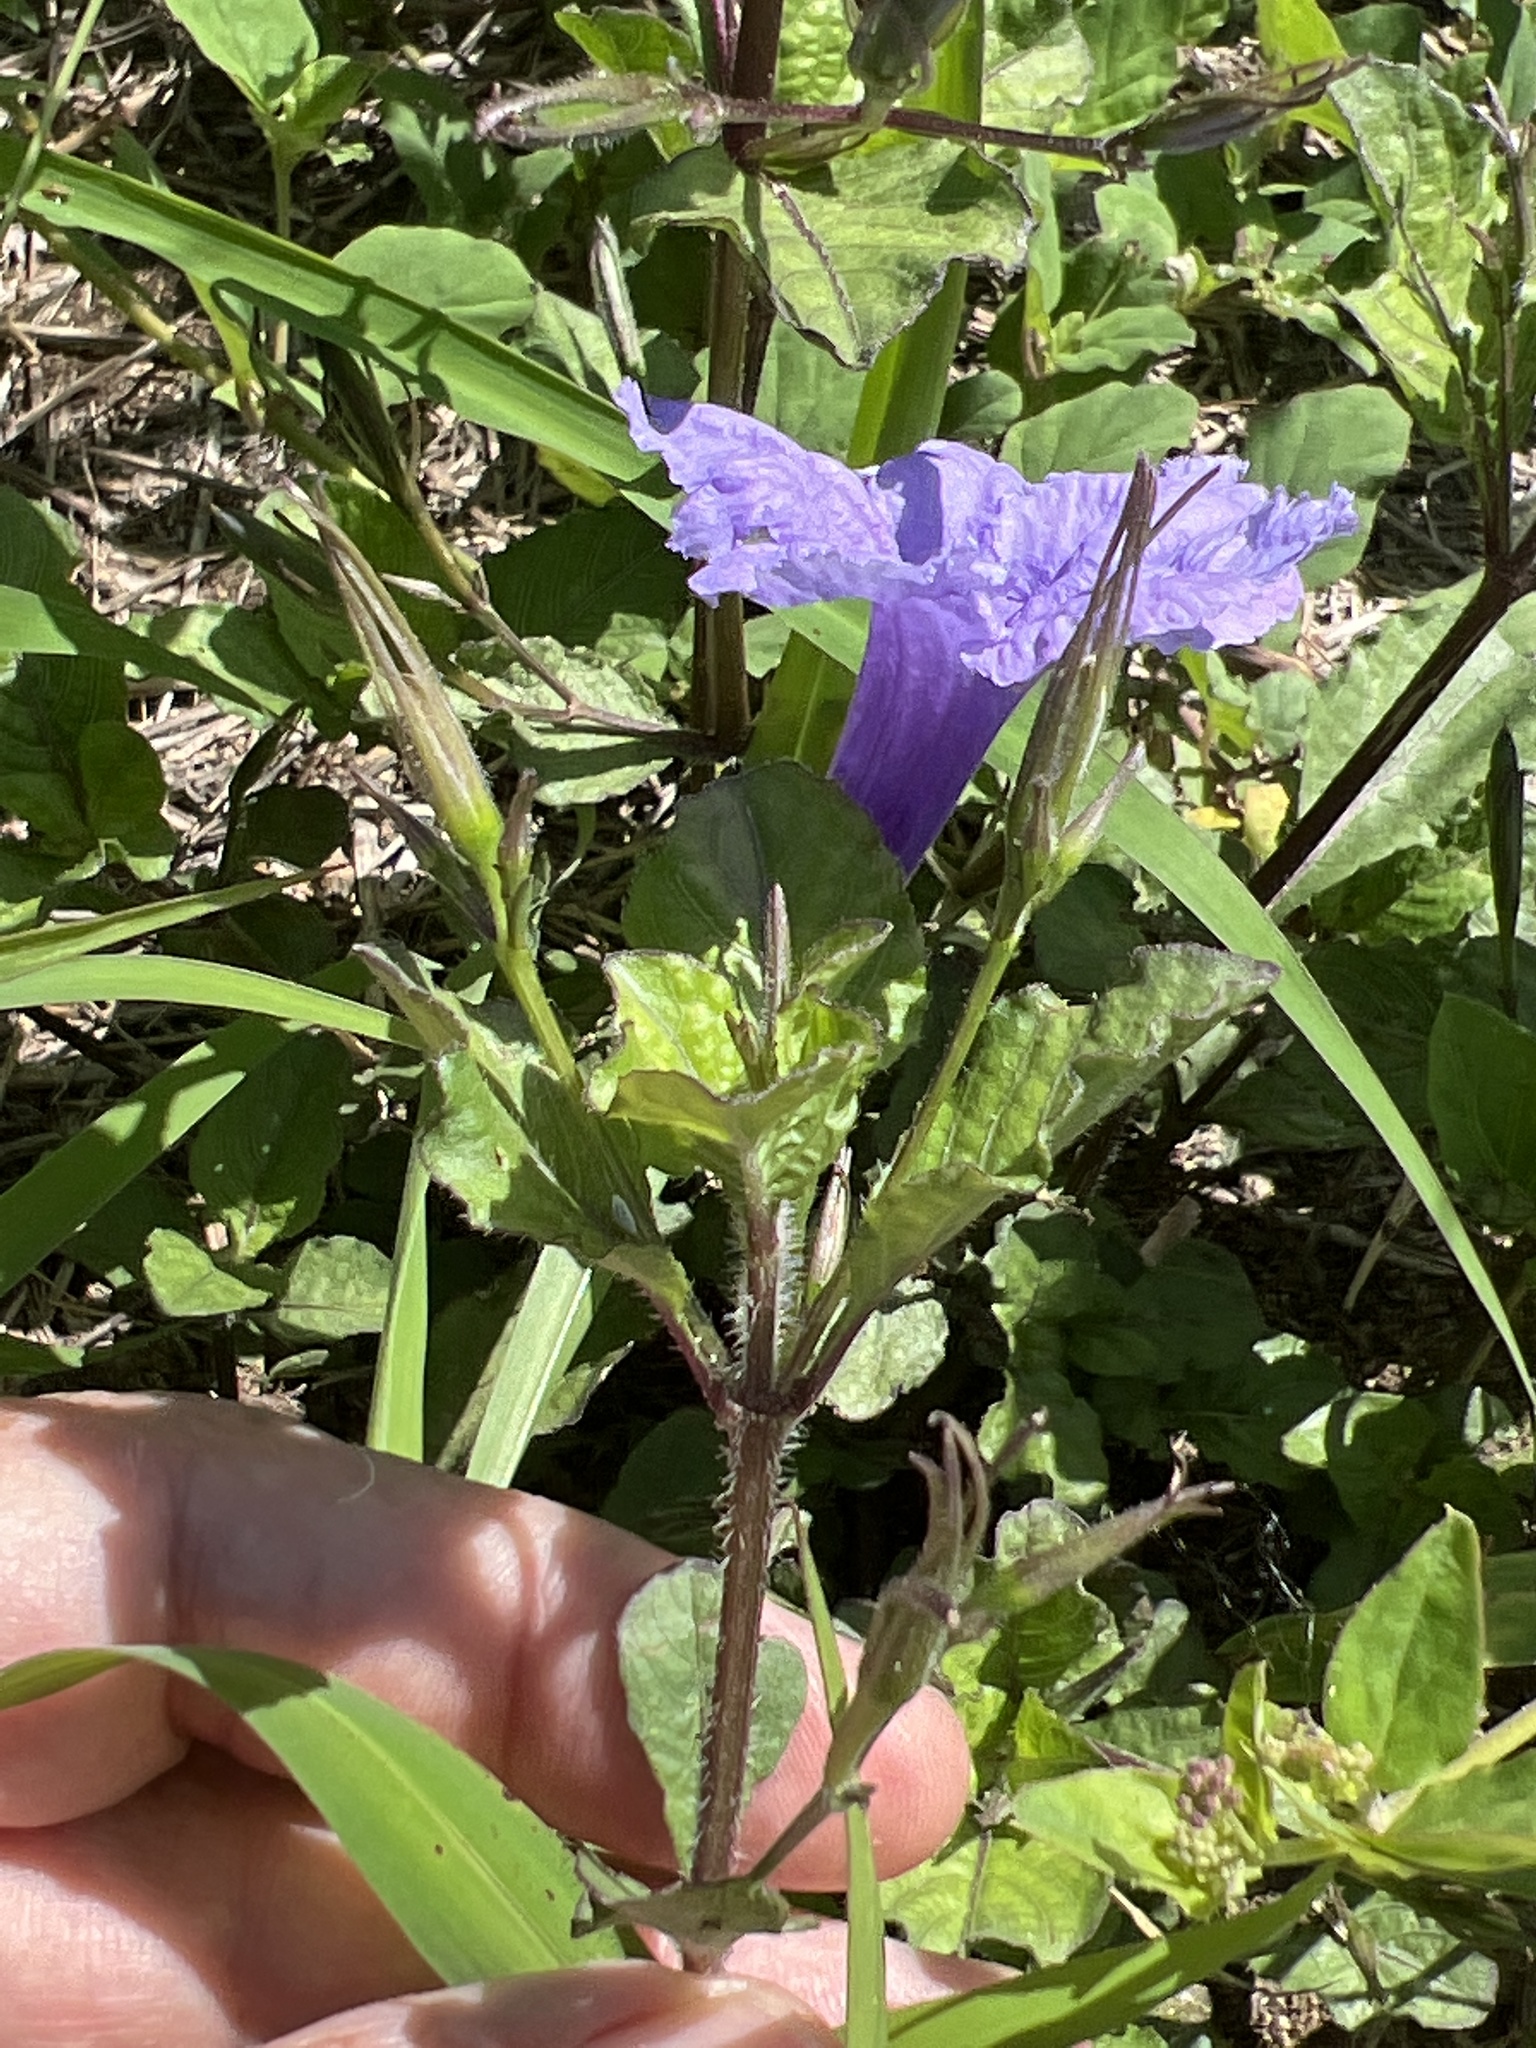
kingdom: Plantae
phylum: Tracheophyta
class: Magnoliopsida
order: Lamiales
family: Acanthaceae
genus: Ruellia
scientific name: Ruellia tuberosa
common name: Devil's bit
